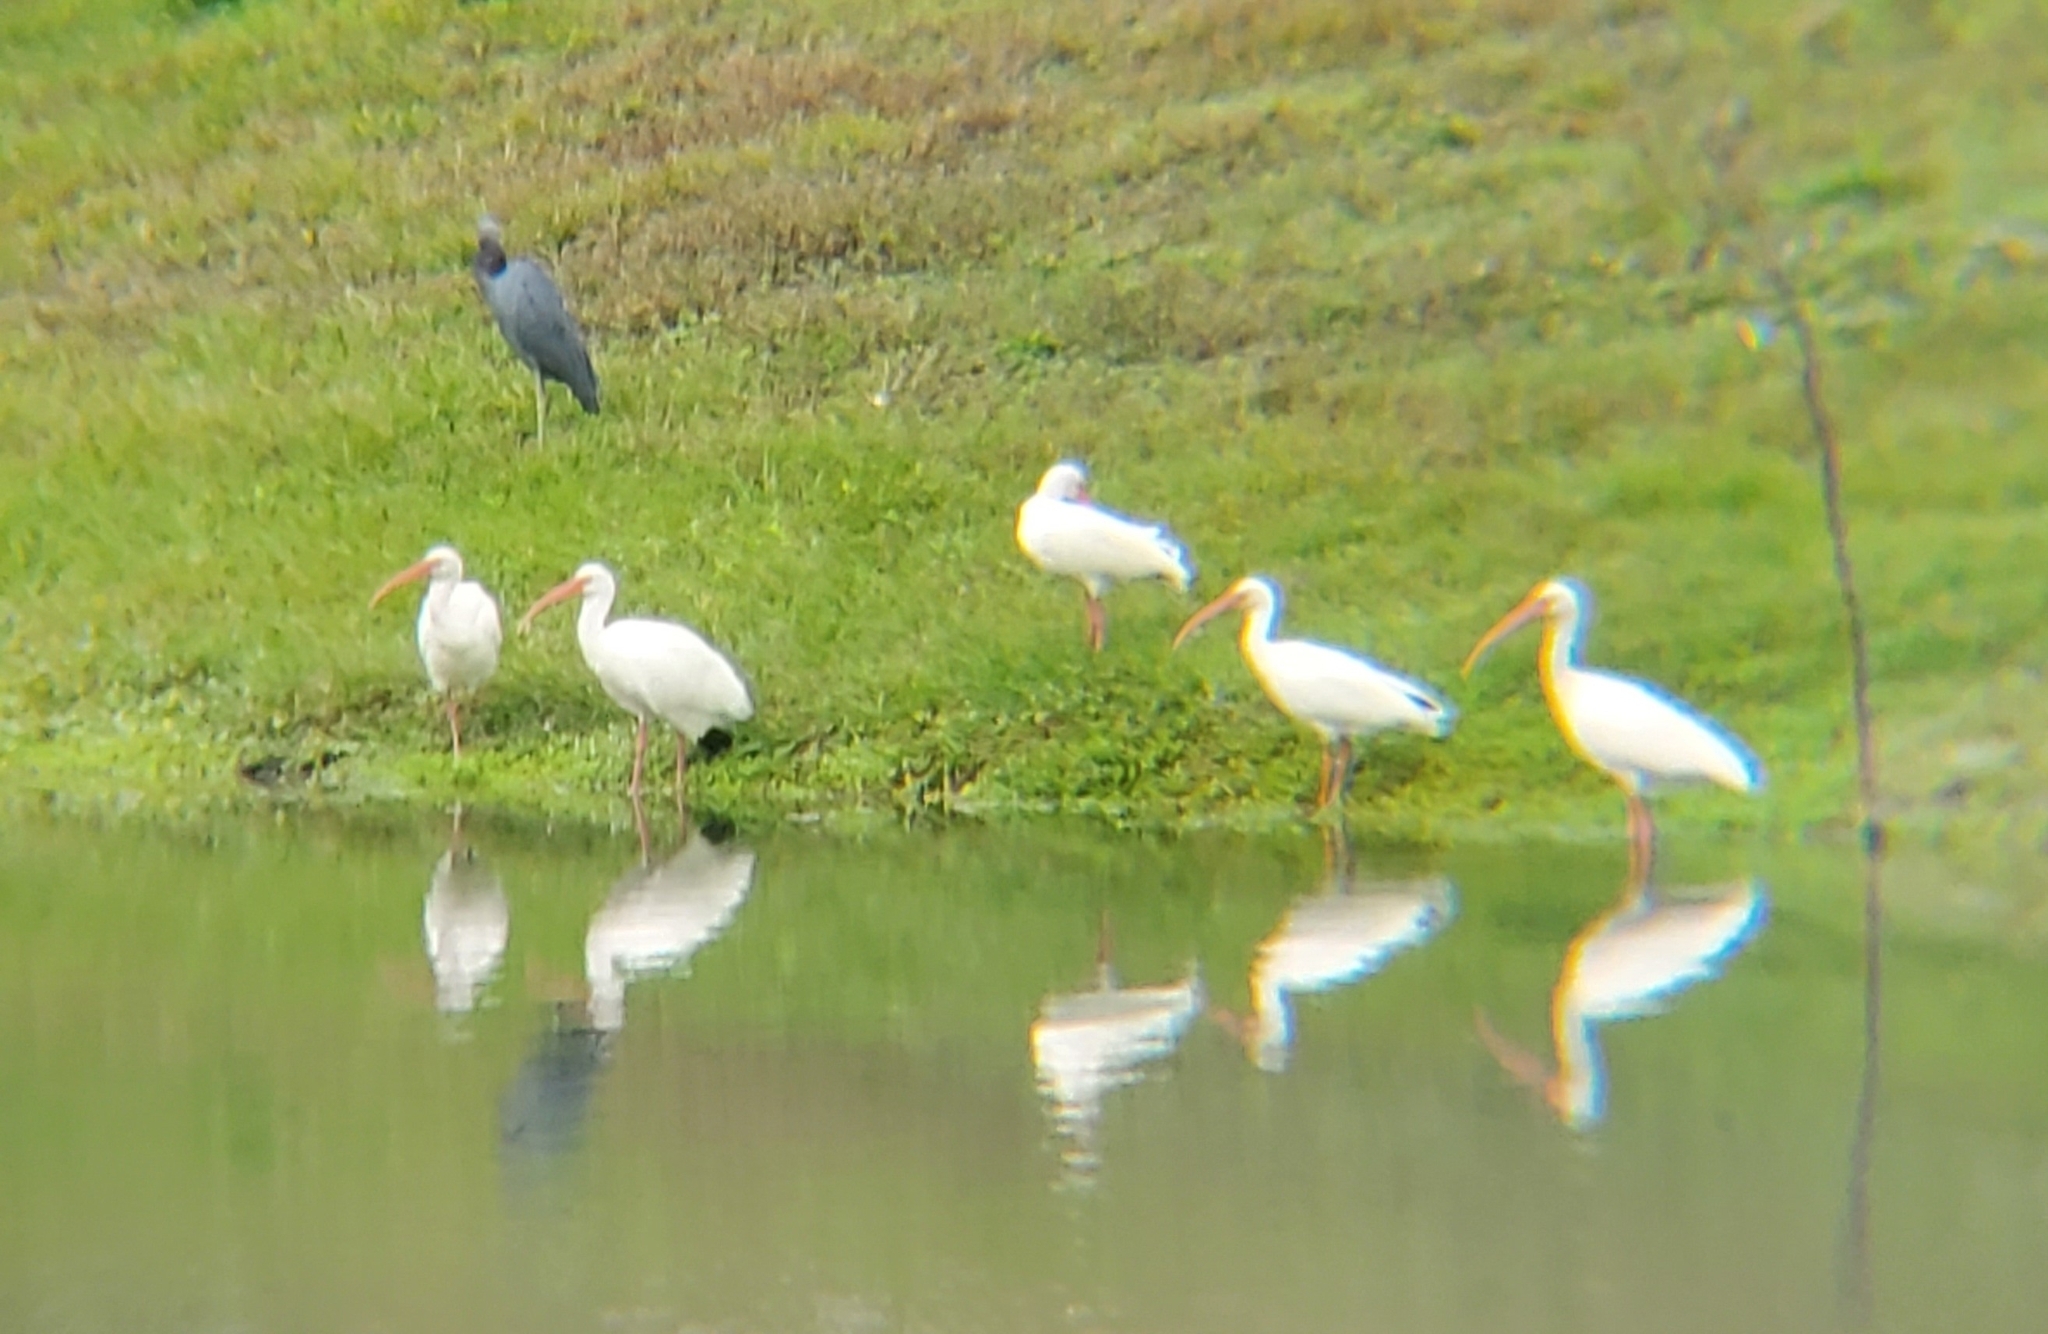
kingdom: Animalia
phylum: Chordata
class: Aves
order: Pelecaniformes
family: Threskiornithidae
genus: Eudocimus
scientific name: Eudocimus albus
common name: White ibis
